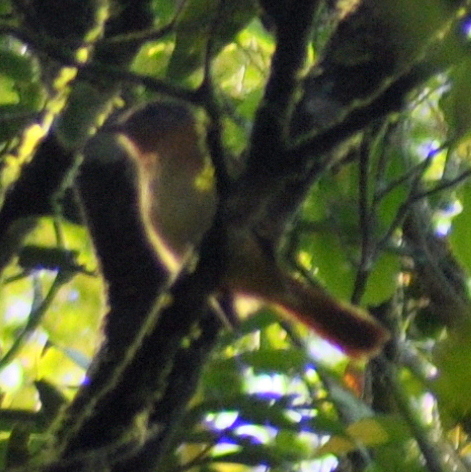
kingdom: Animalia
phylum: Chordata
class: Aves
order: Passeriformes
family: Tyrannidae
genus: Attila
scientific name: Attila phoenicurus
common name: Rufous-tailed attila
